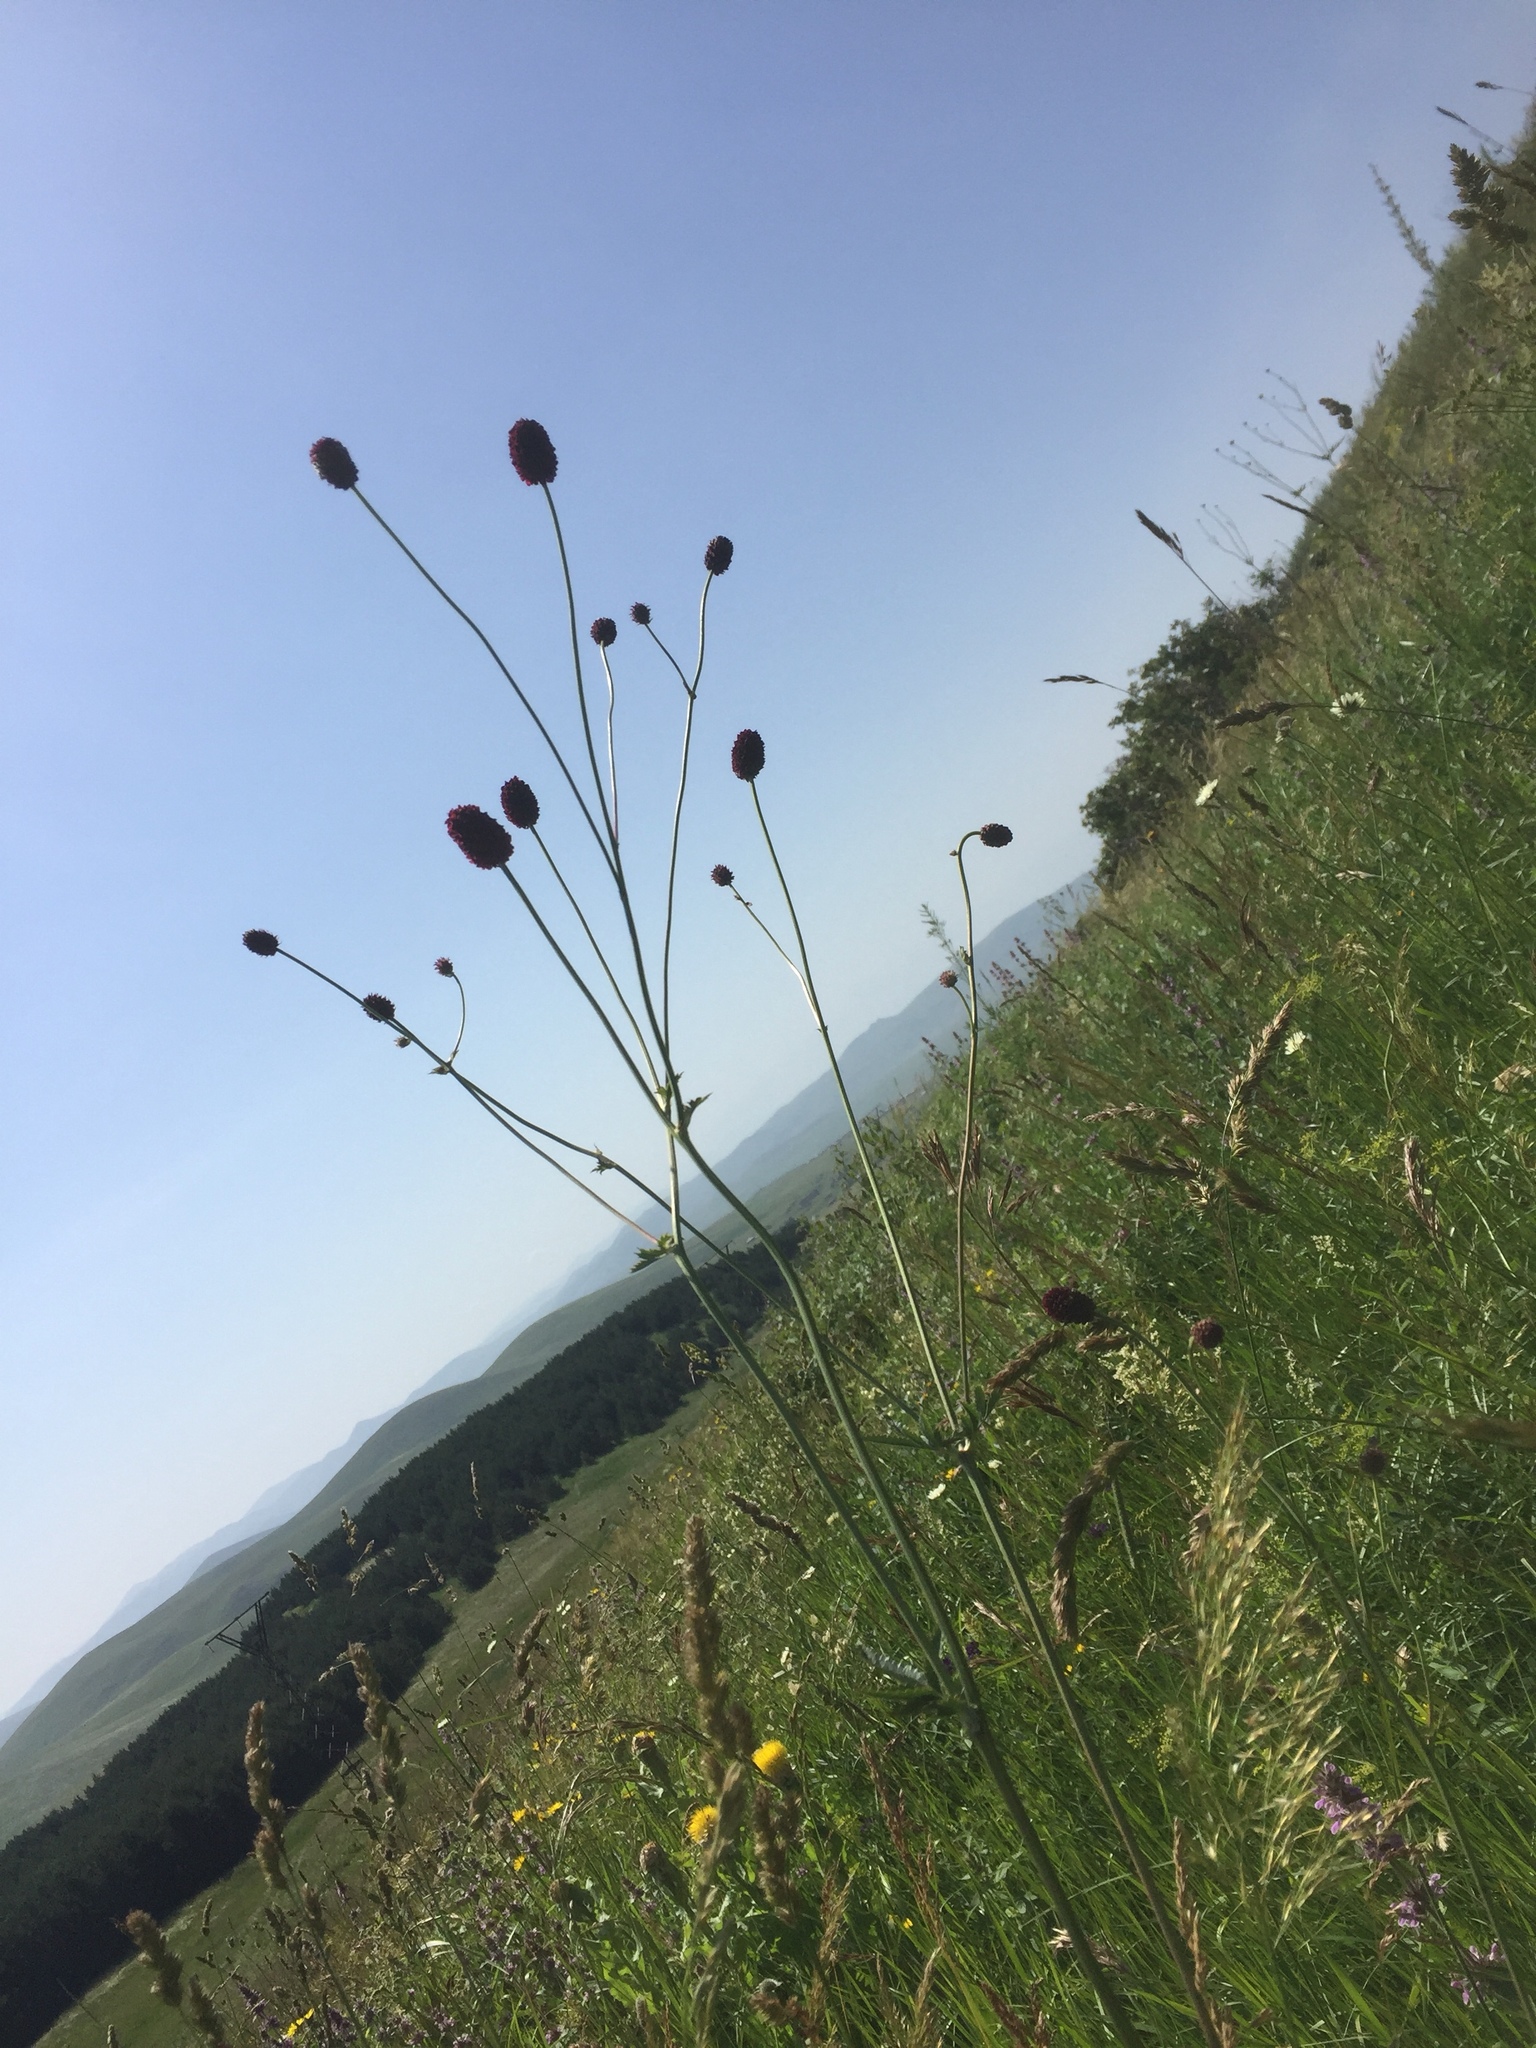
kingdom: Plantae
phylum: Tracheophyta
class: Magnoliopsida
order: Rosales
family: Rosaceae
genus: Sanguisorba
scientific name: Sanguisorba officinalis
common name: Great burnet
